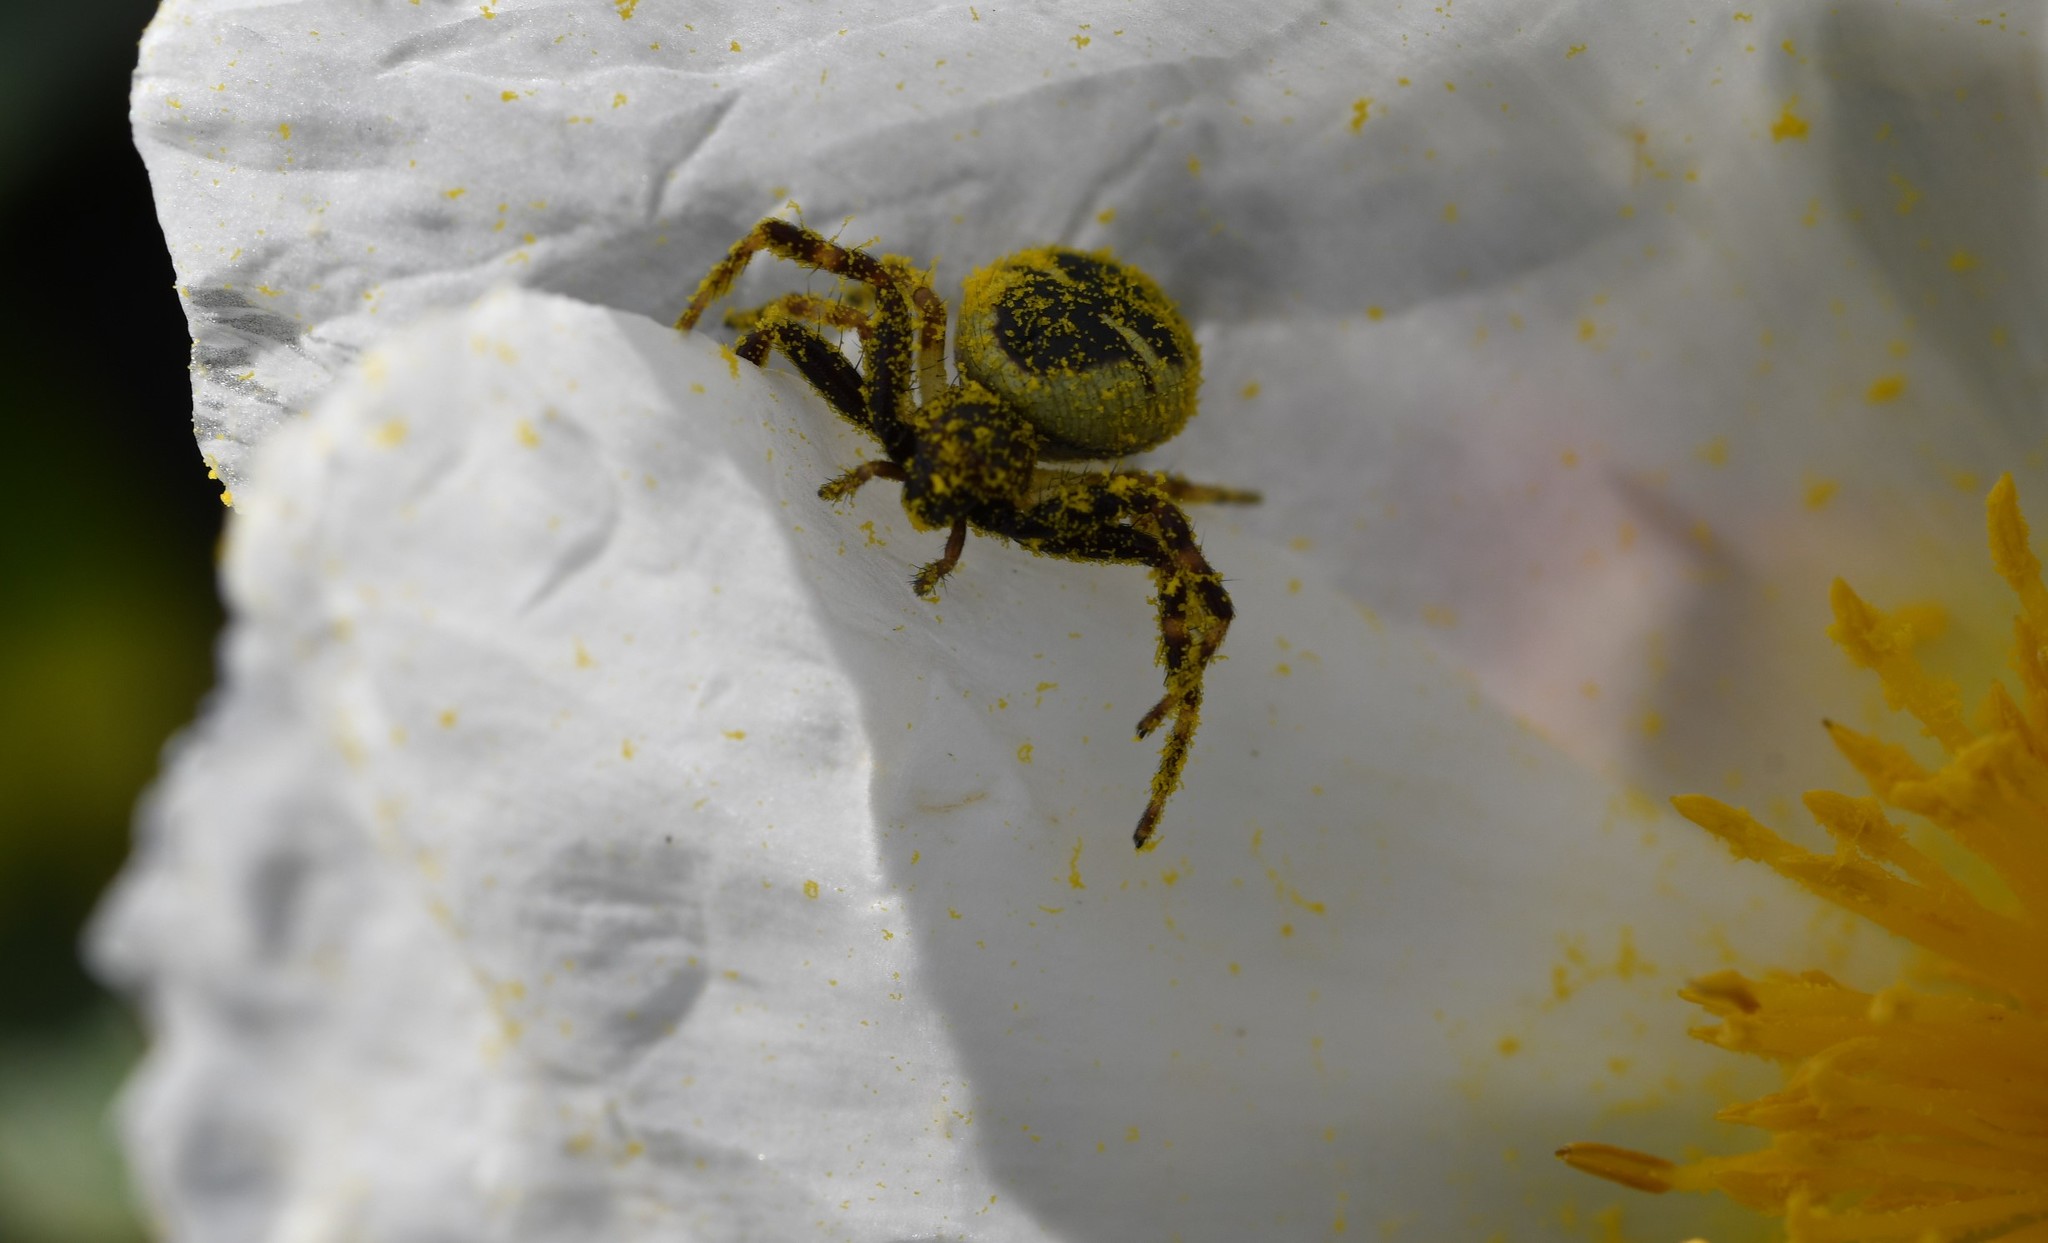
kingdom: Animalia
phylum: Arthropoda
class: Arachnida
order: Araneae
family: Thomisidae
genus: Synema
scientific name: Synema globosum
